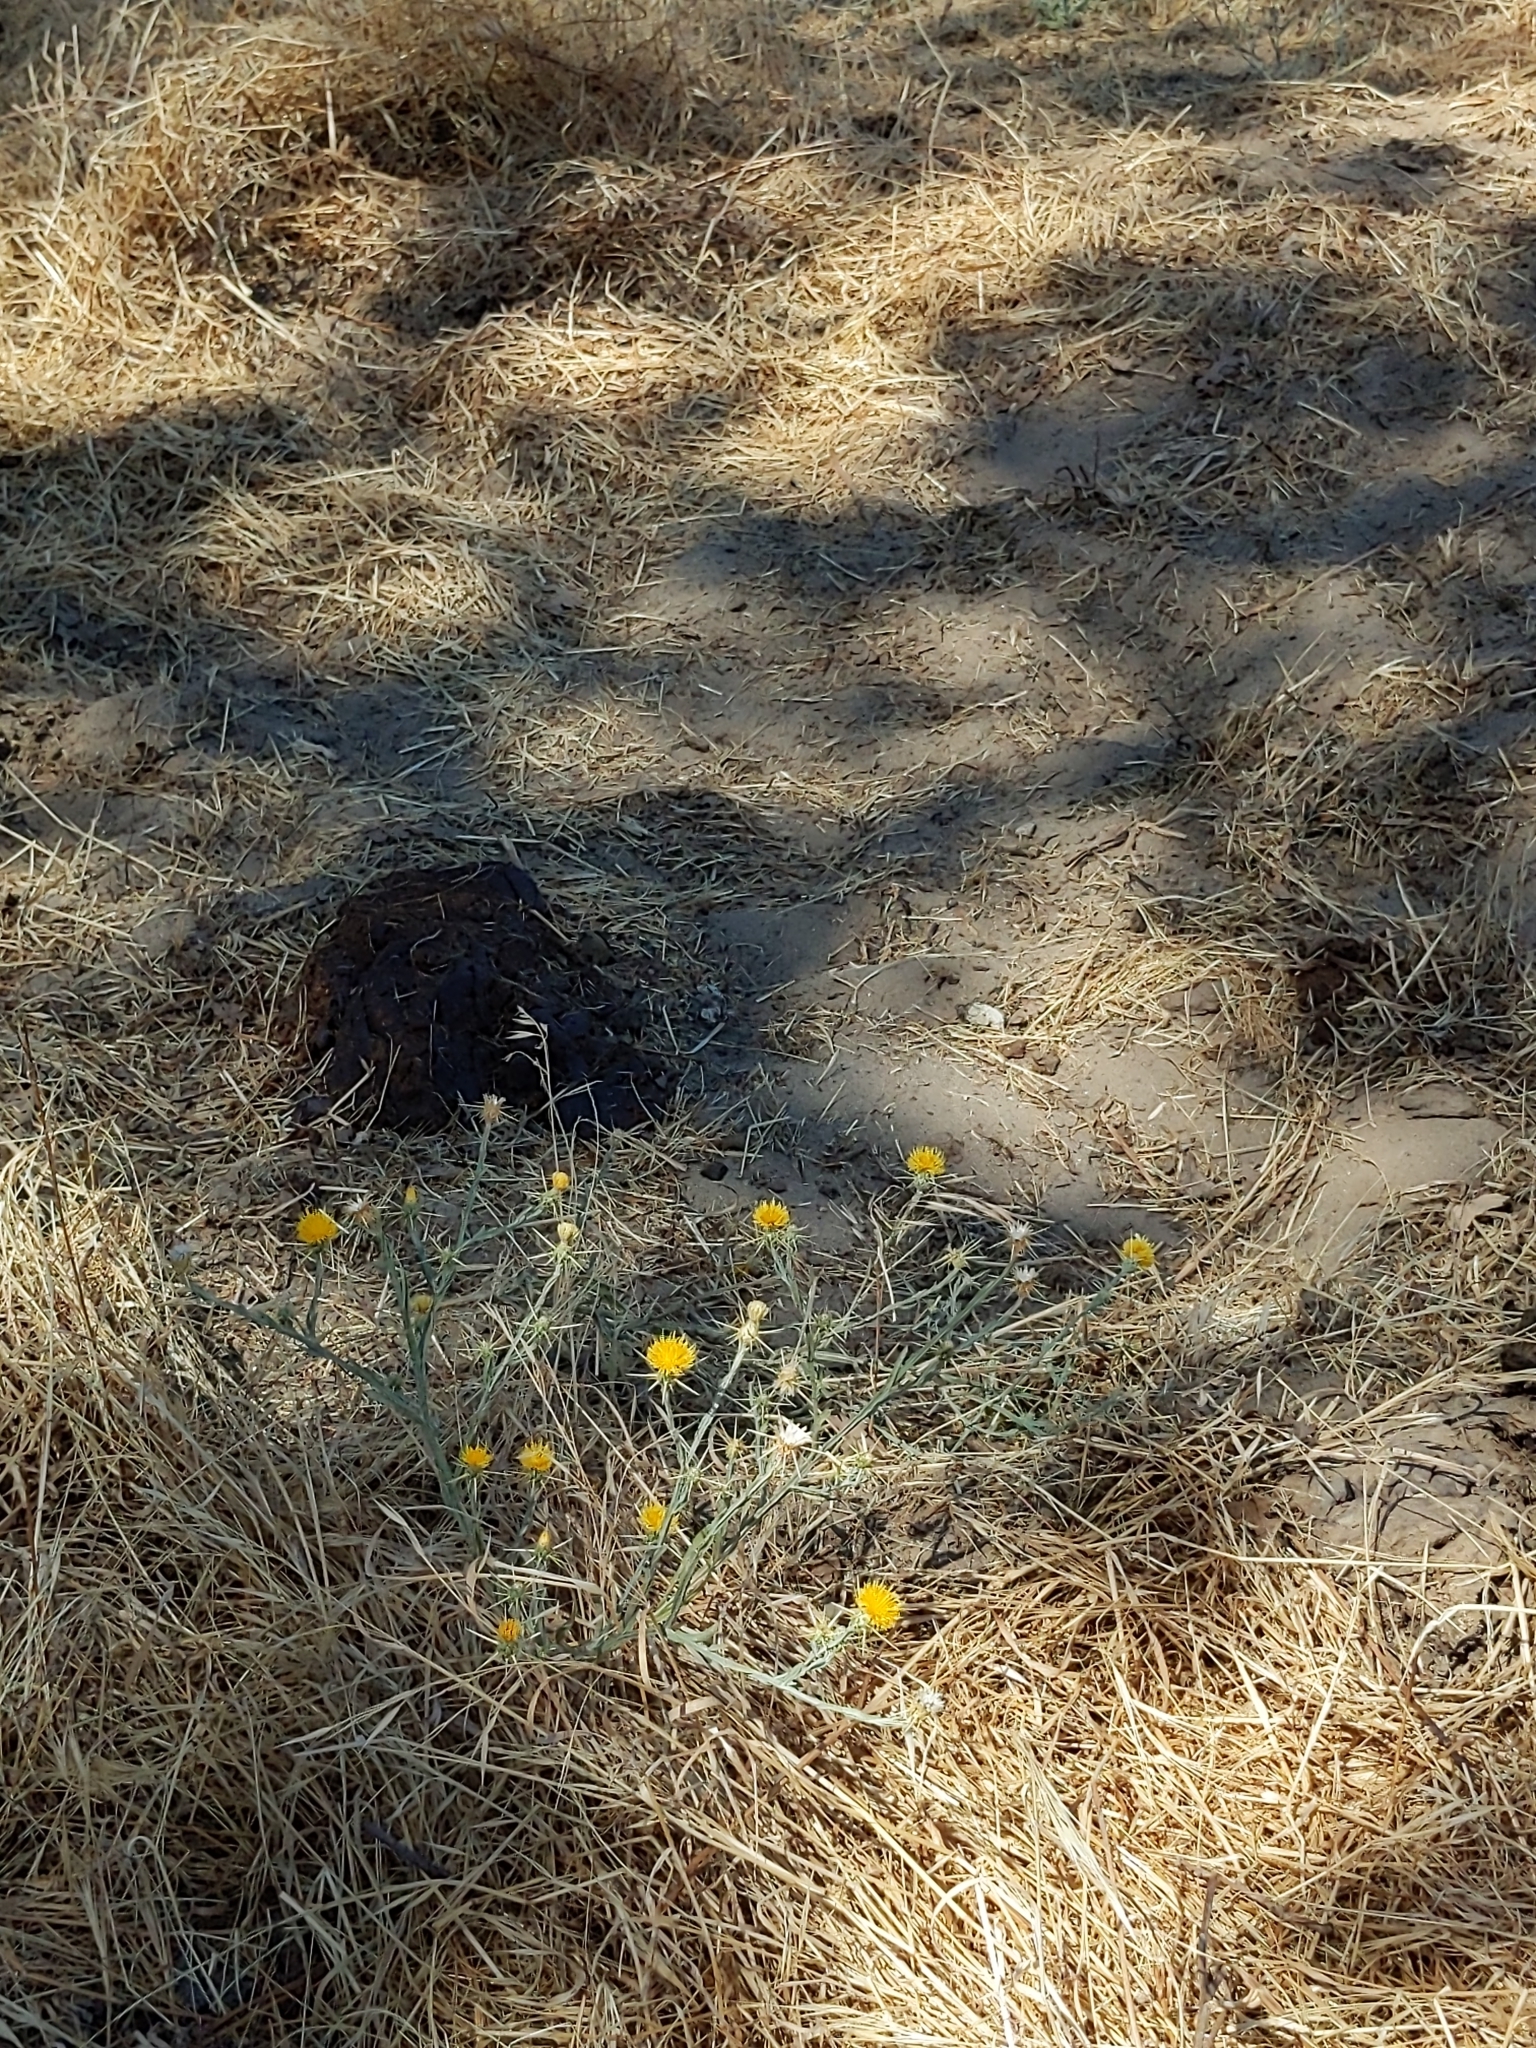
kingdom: Plantae
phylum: Tracheophyta
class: Magnoliopsida
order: Asterales
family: Asteraceae
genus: Centaurea
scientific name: Centaurea solstitialis
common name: Yellow star-thistle
